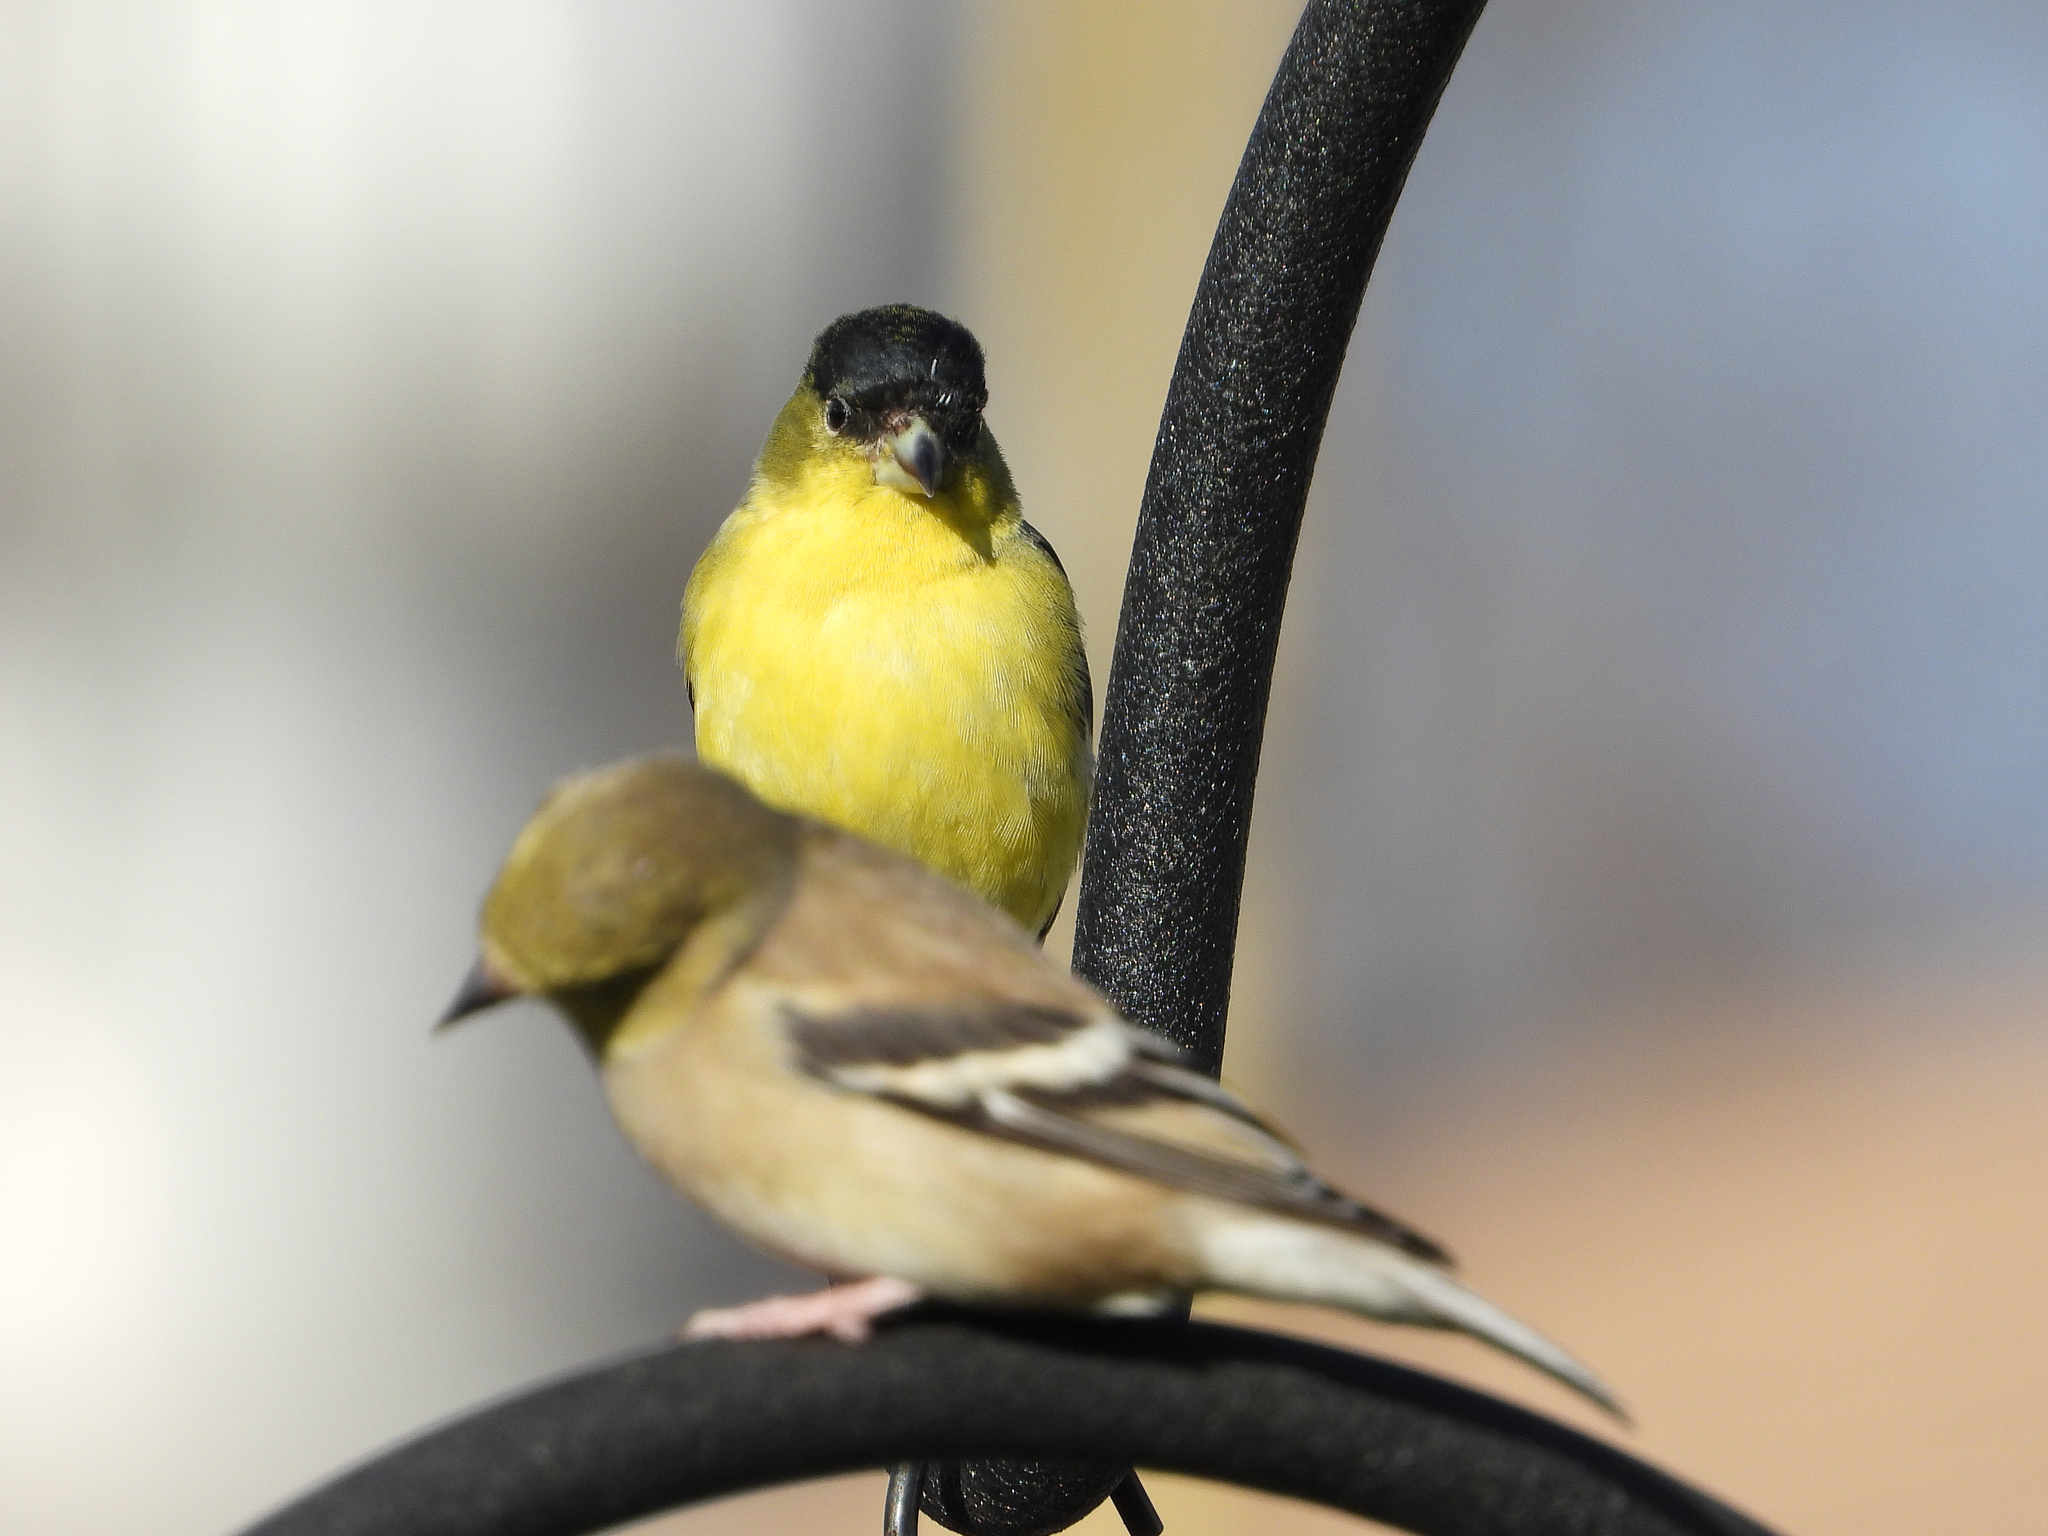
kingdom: Animalia
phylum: Chordata
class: Aves
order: Passeriformes
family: Fringillidae
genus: Spinus
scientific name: Spinus psaltria
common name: Lesser goldfinch
